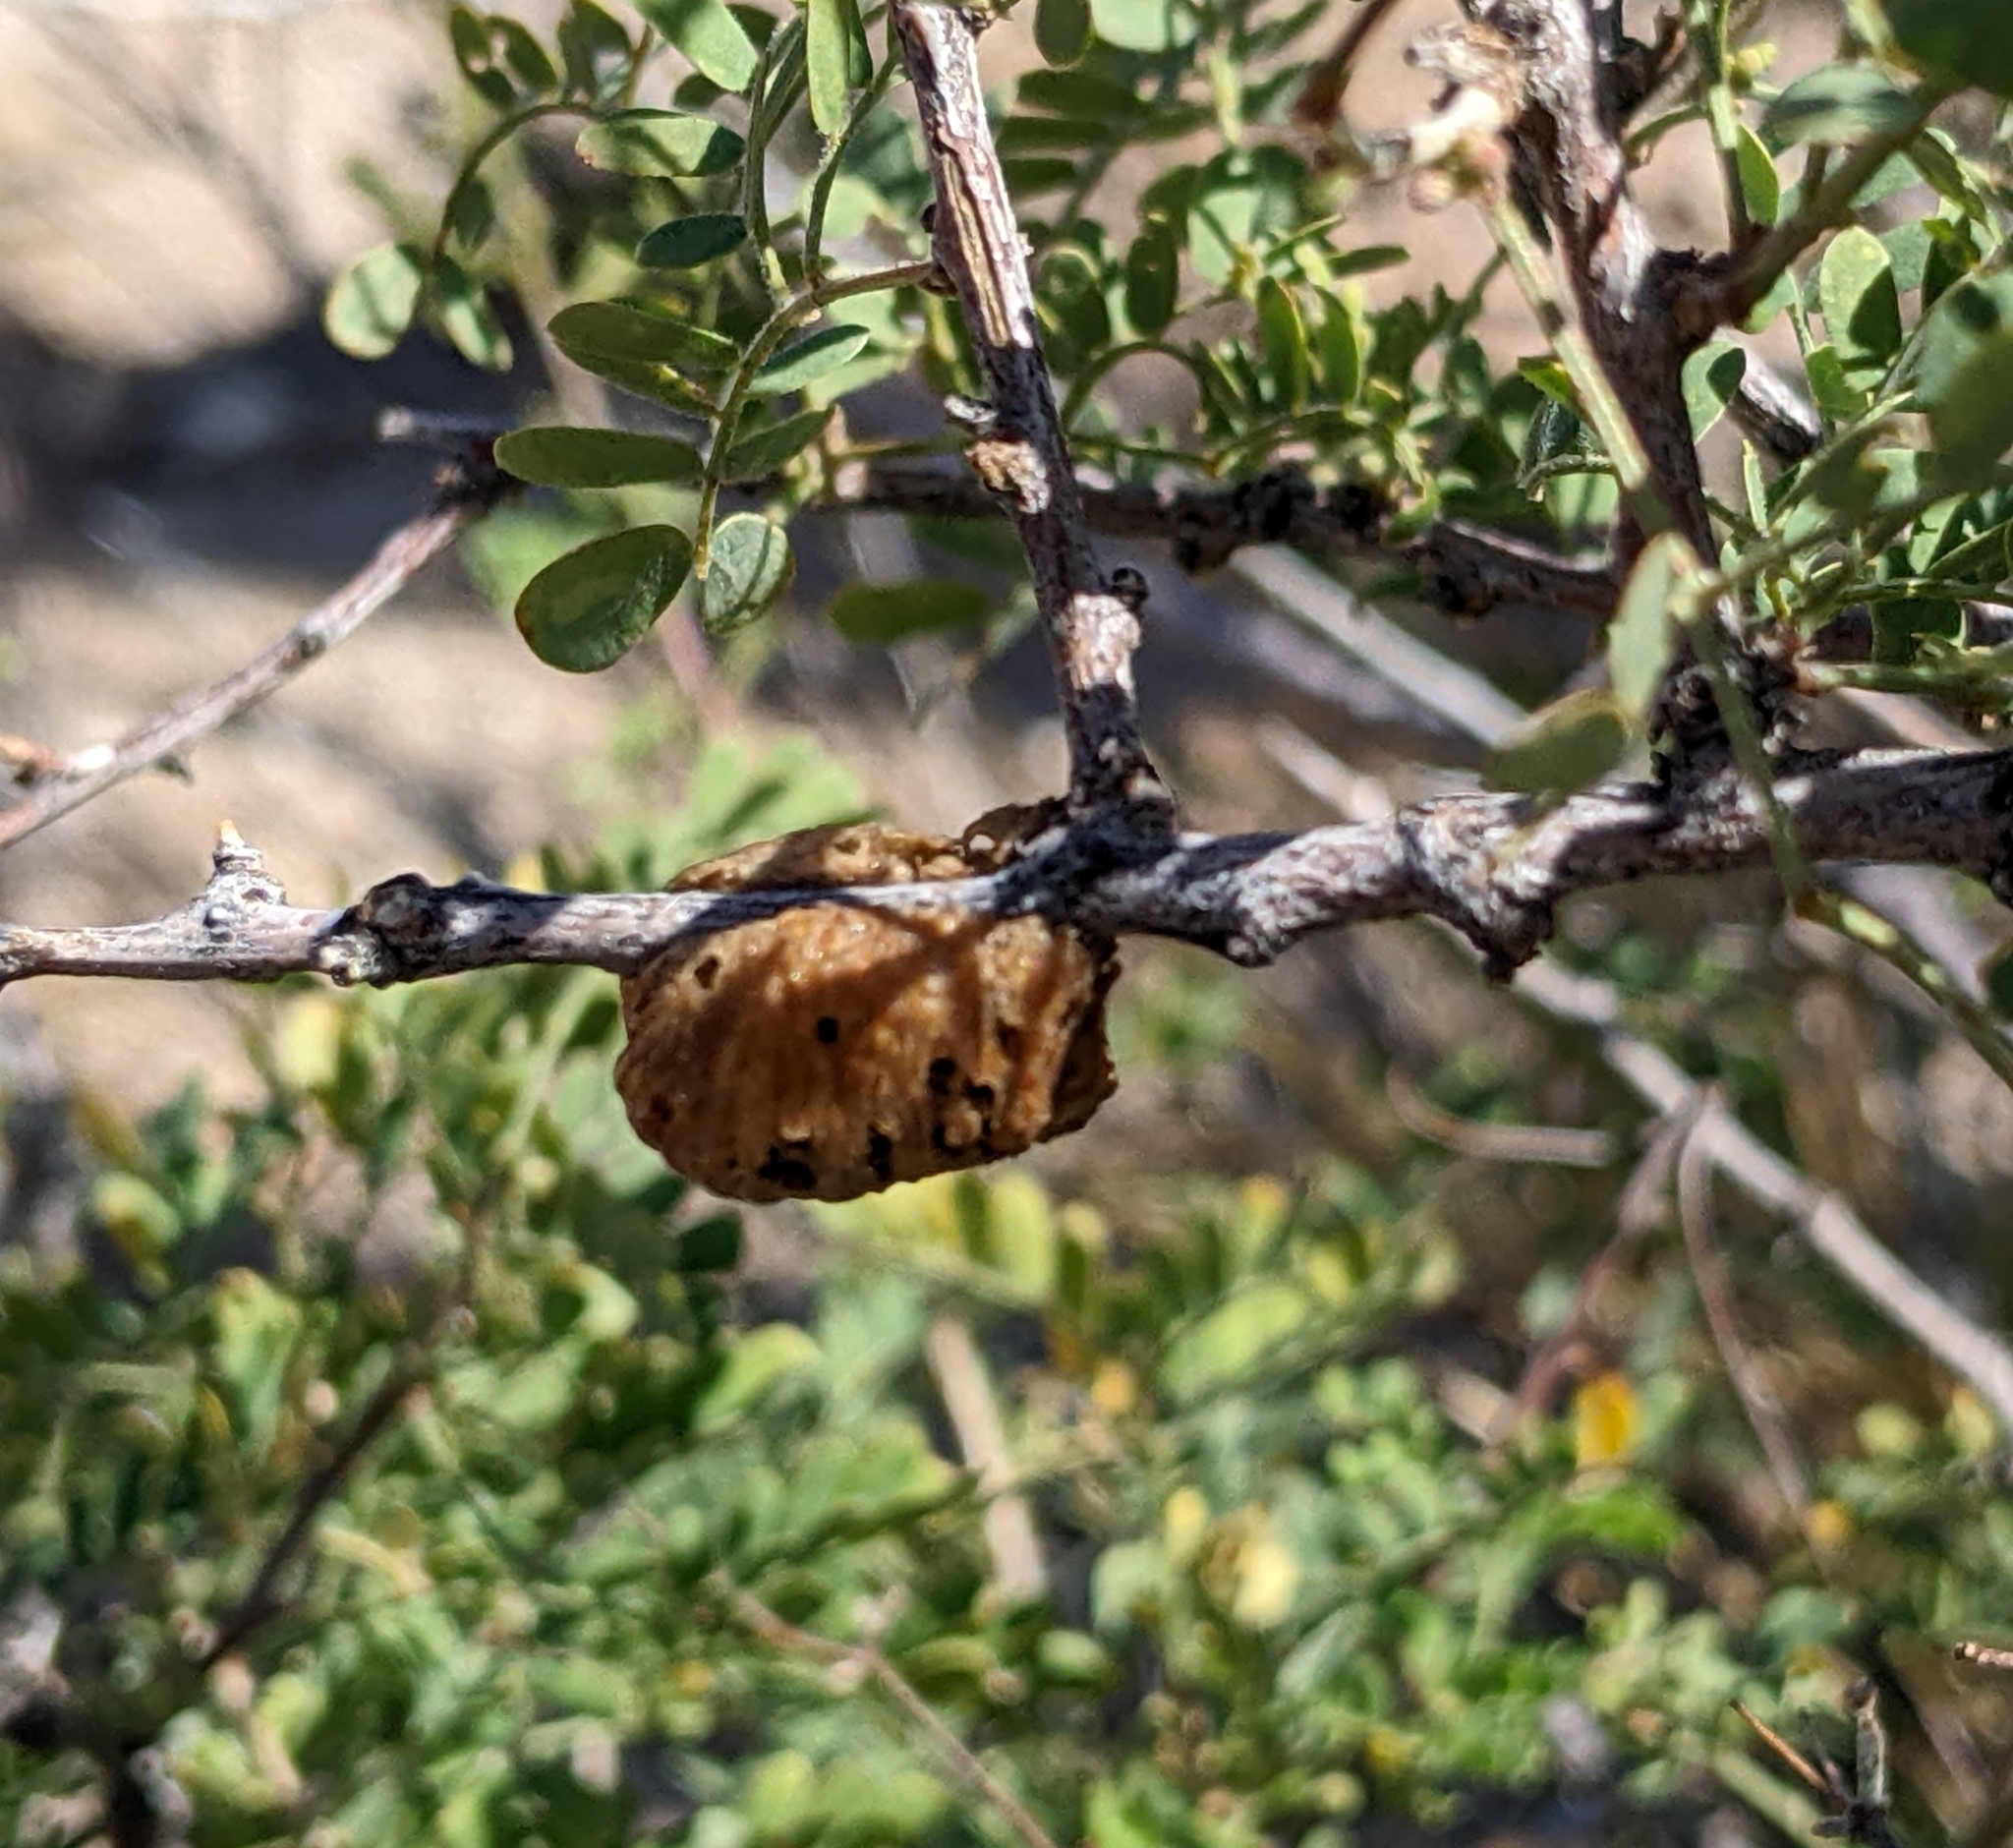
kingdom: Animalia
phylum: Arthropoda
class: Insecta
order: Mantodea
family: Mantidae
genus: Stagmomantis
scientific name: Stagmomantis limbata
